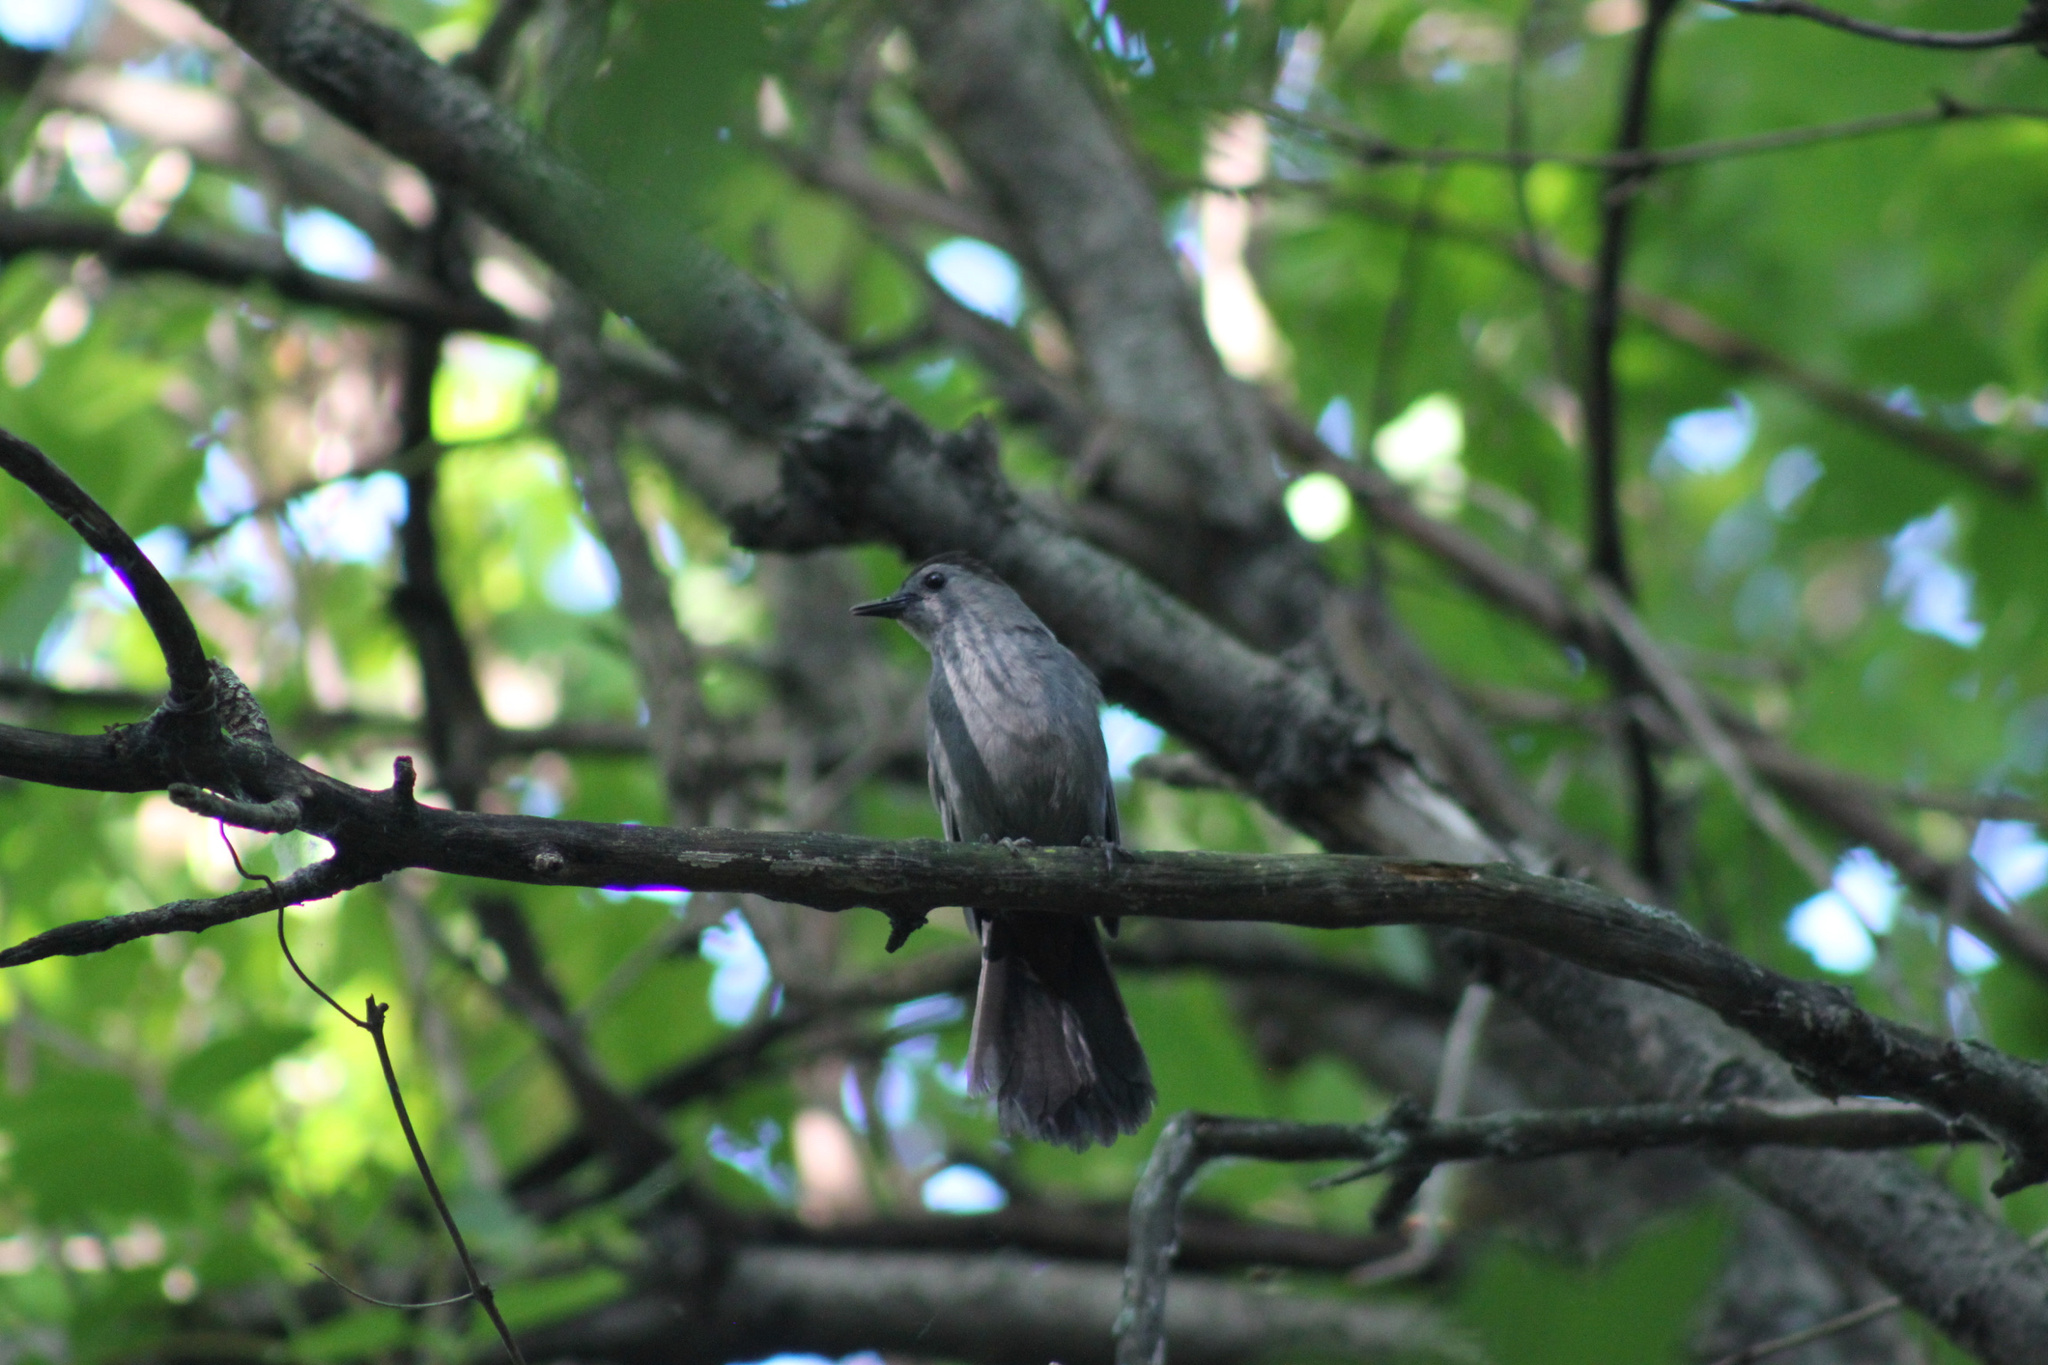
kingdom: Animalia
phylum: Chordata
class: Aves
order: Passeriformes
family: Mimidae
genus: Dumetella
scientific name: Dumetella carolinensis
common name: Gray catbird
